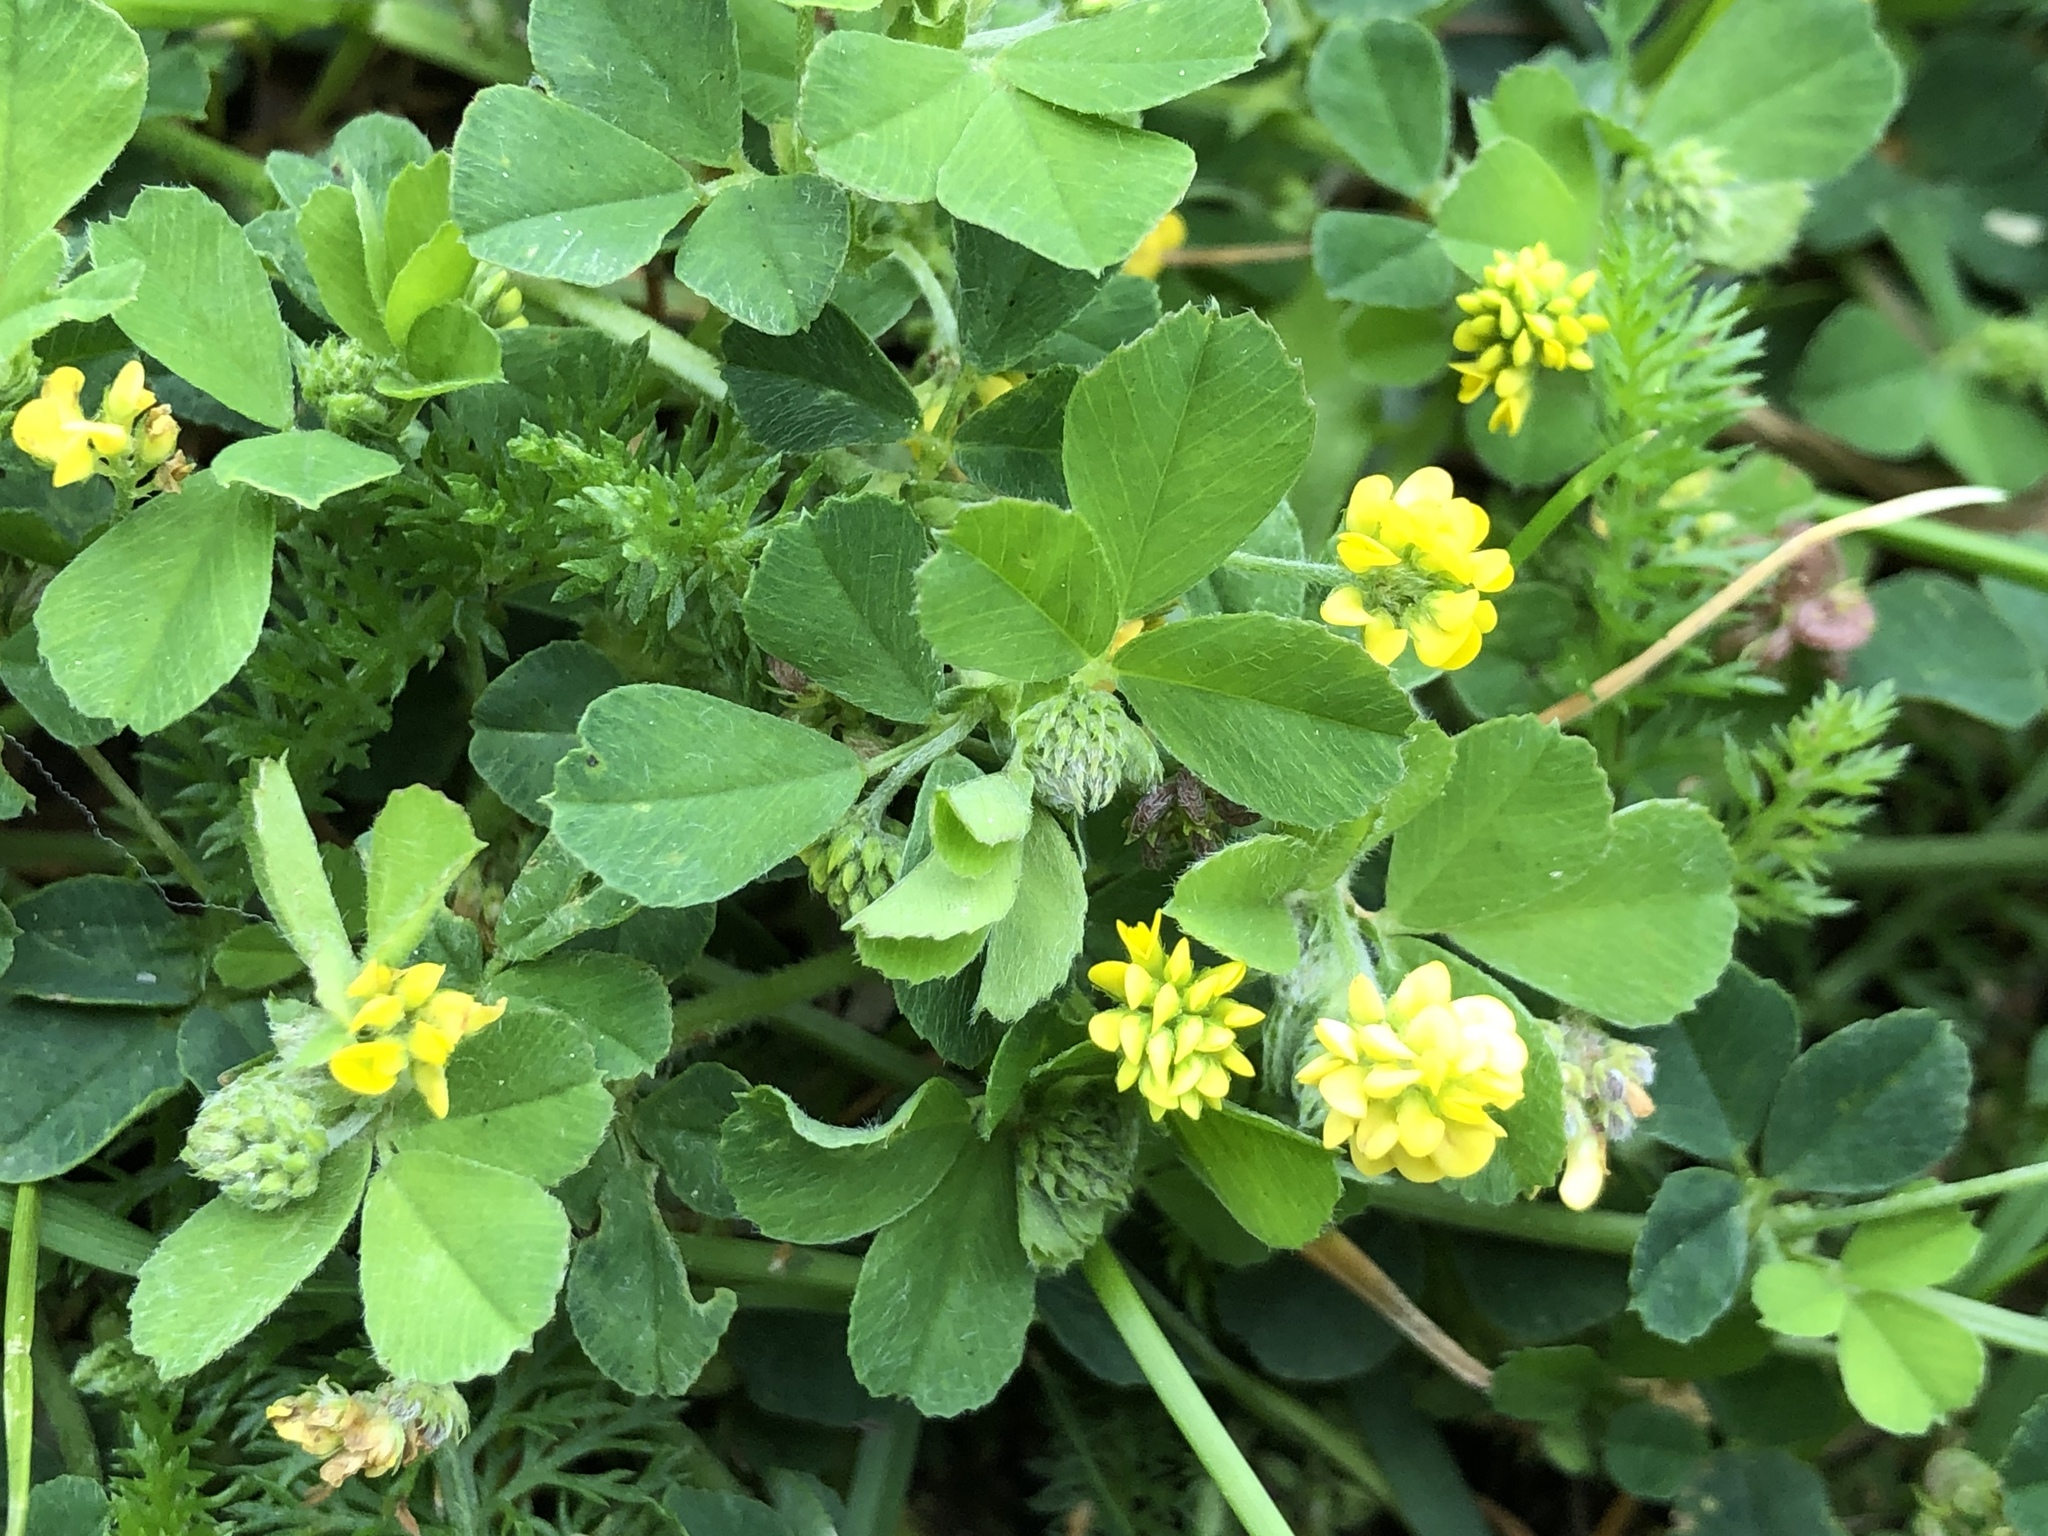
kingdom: Plantae
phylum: Tracheophyta
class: Magnoliopsida
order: Fabales
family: Fabaceae
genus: Medicago
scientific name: Medicago lupulina
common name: Black medick
